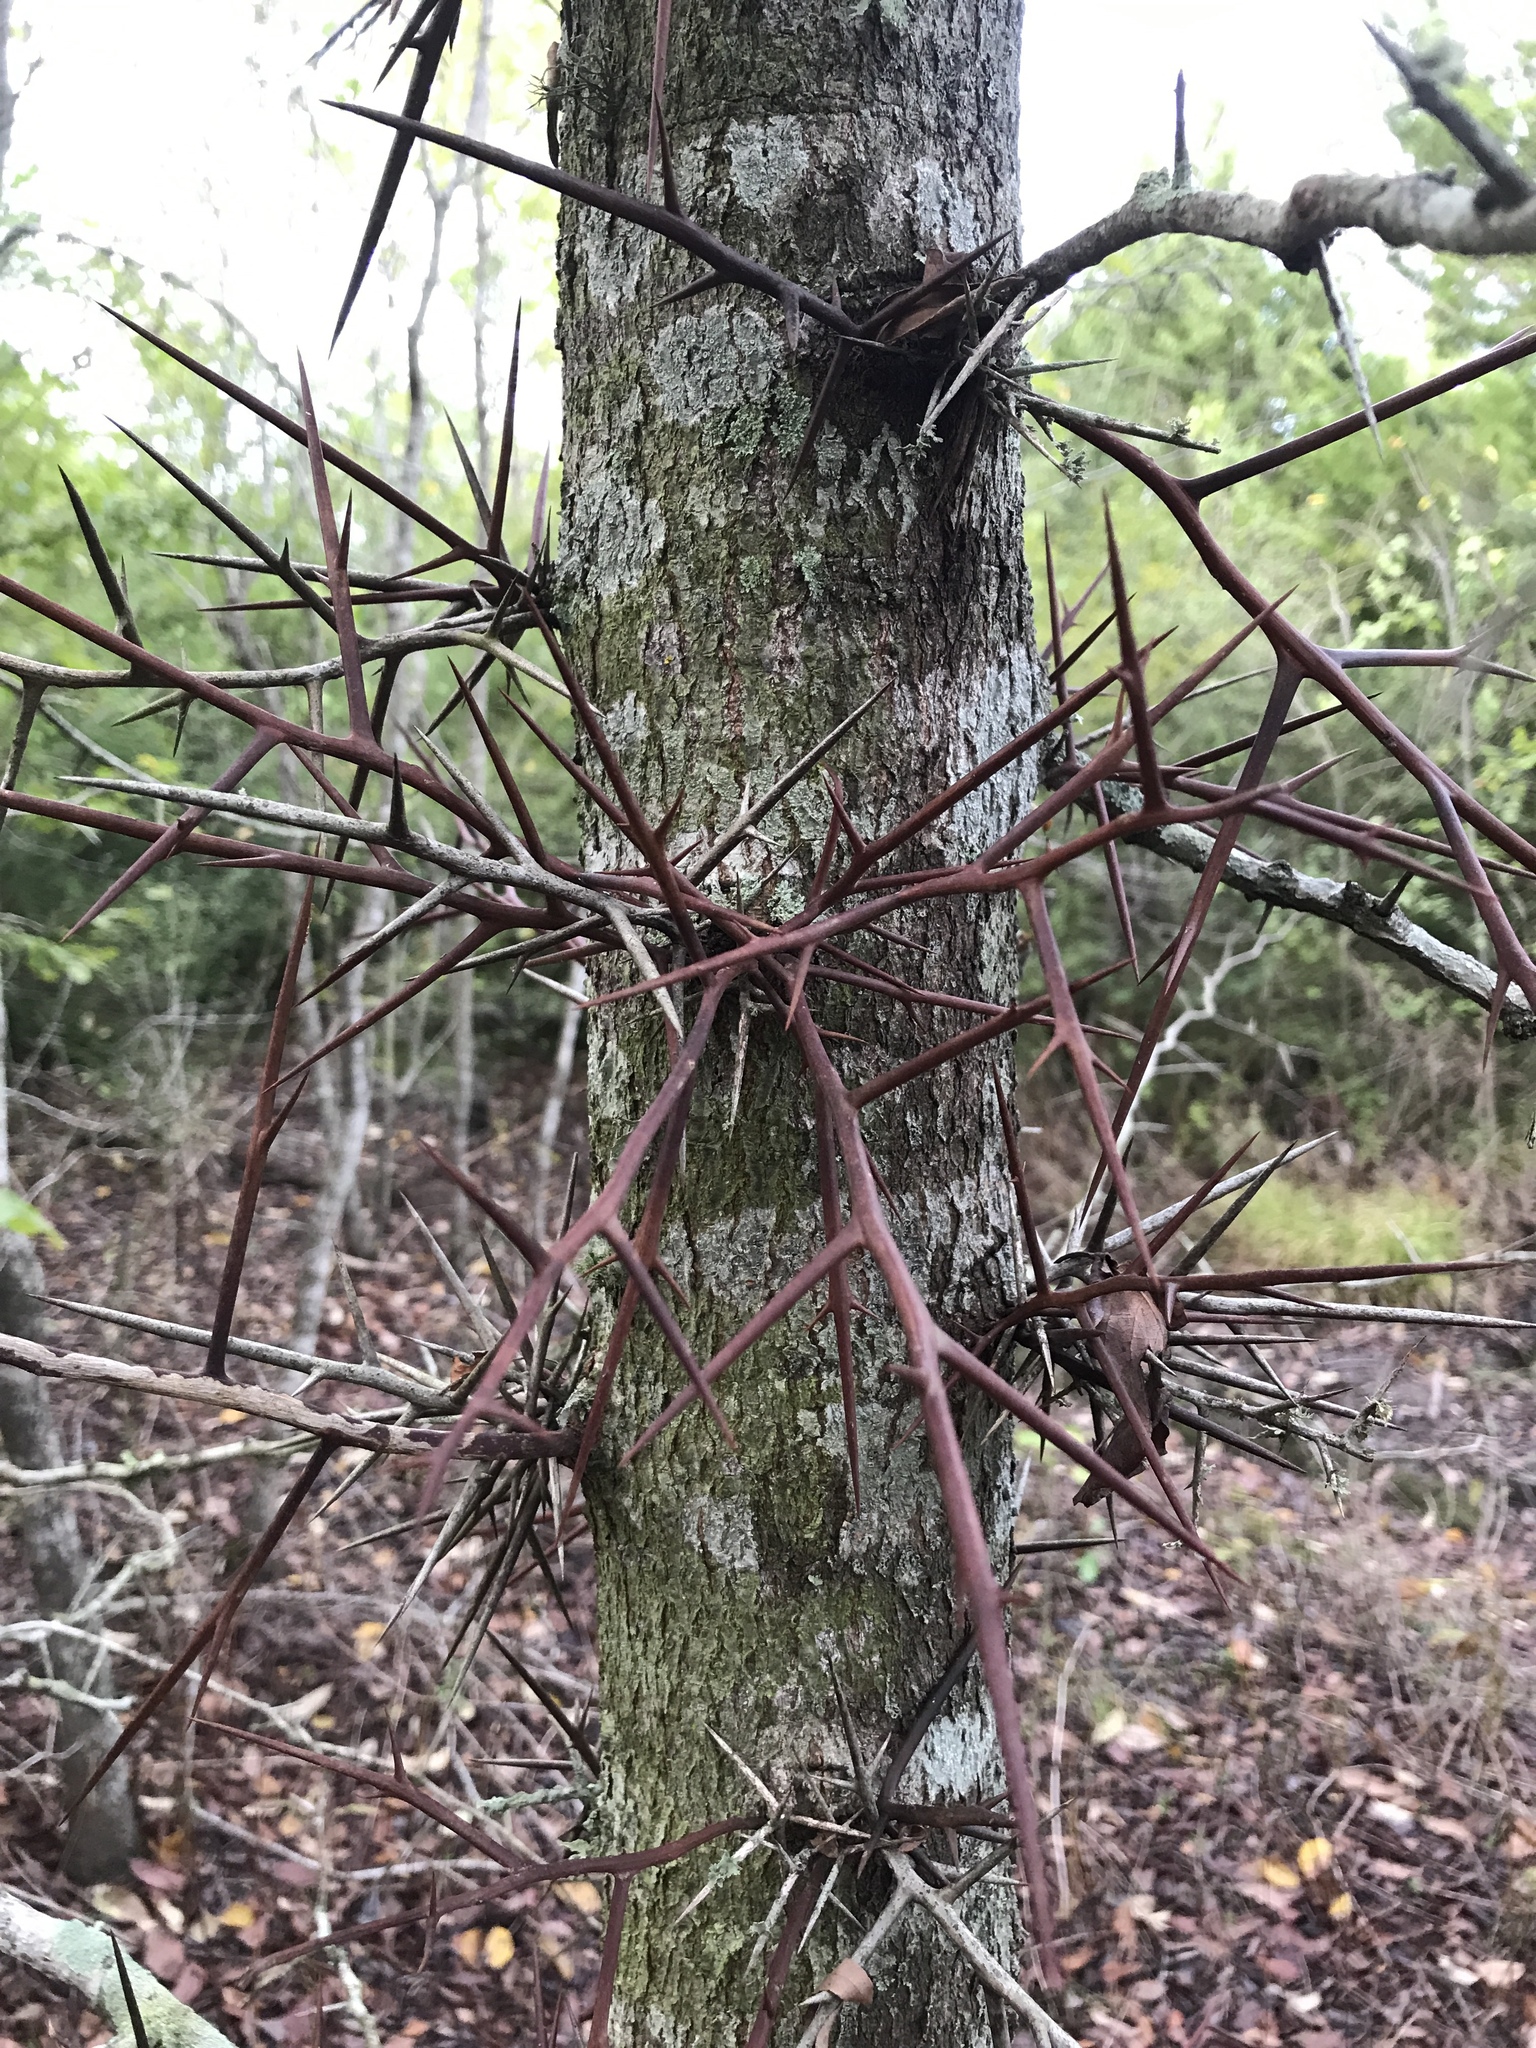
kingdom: Plantae
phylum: Tracheophyta
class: Magnoliopsida
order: Fabales
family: Fabaceae
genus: Gleditsia
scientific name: Gleditsia triacanthos
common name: Common honeylocust
